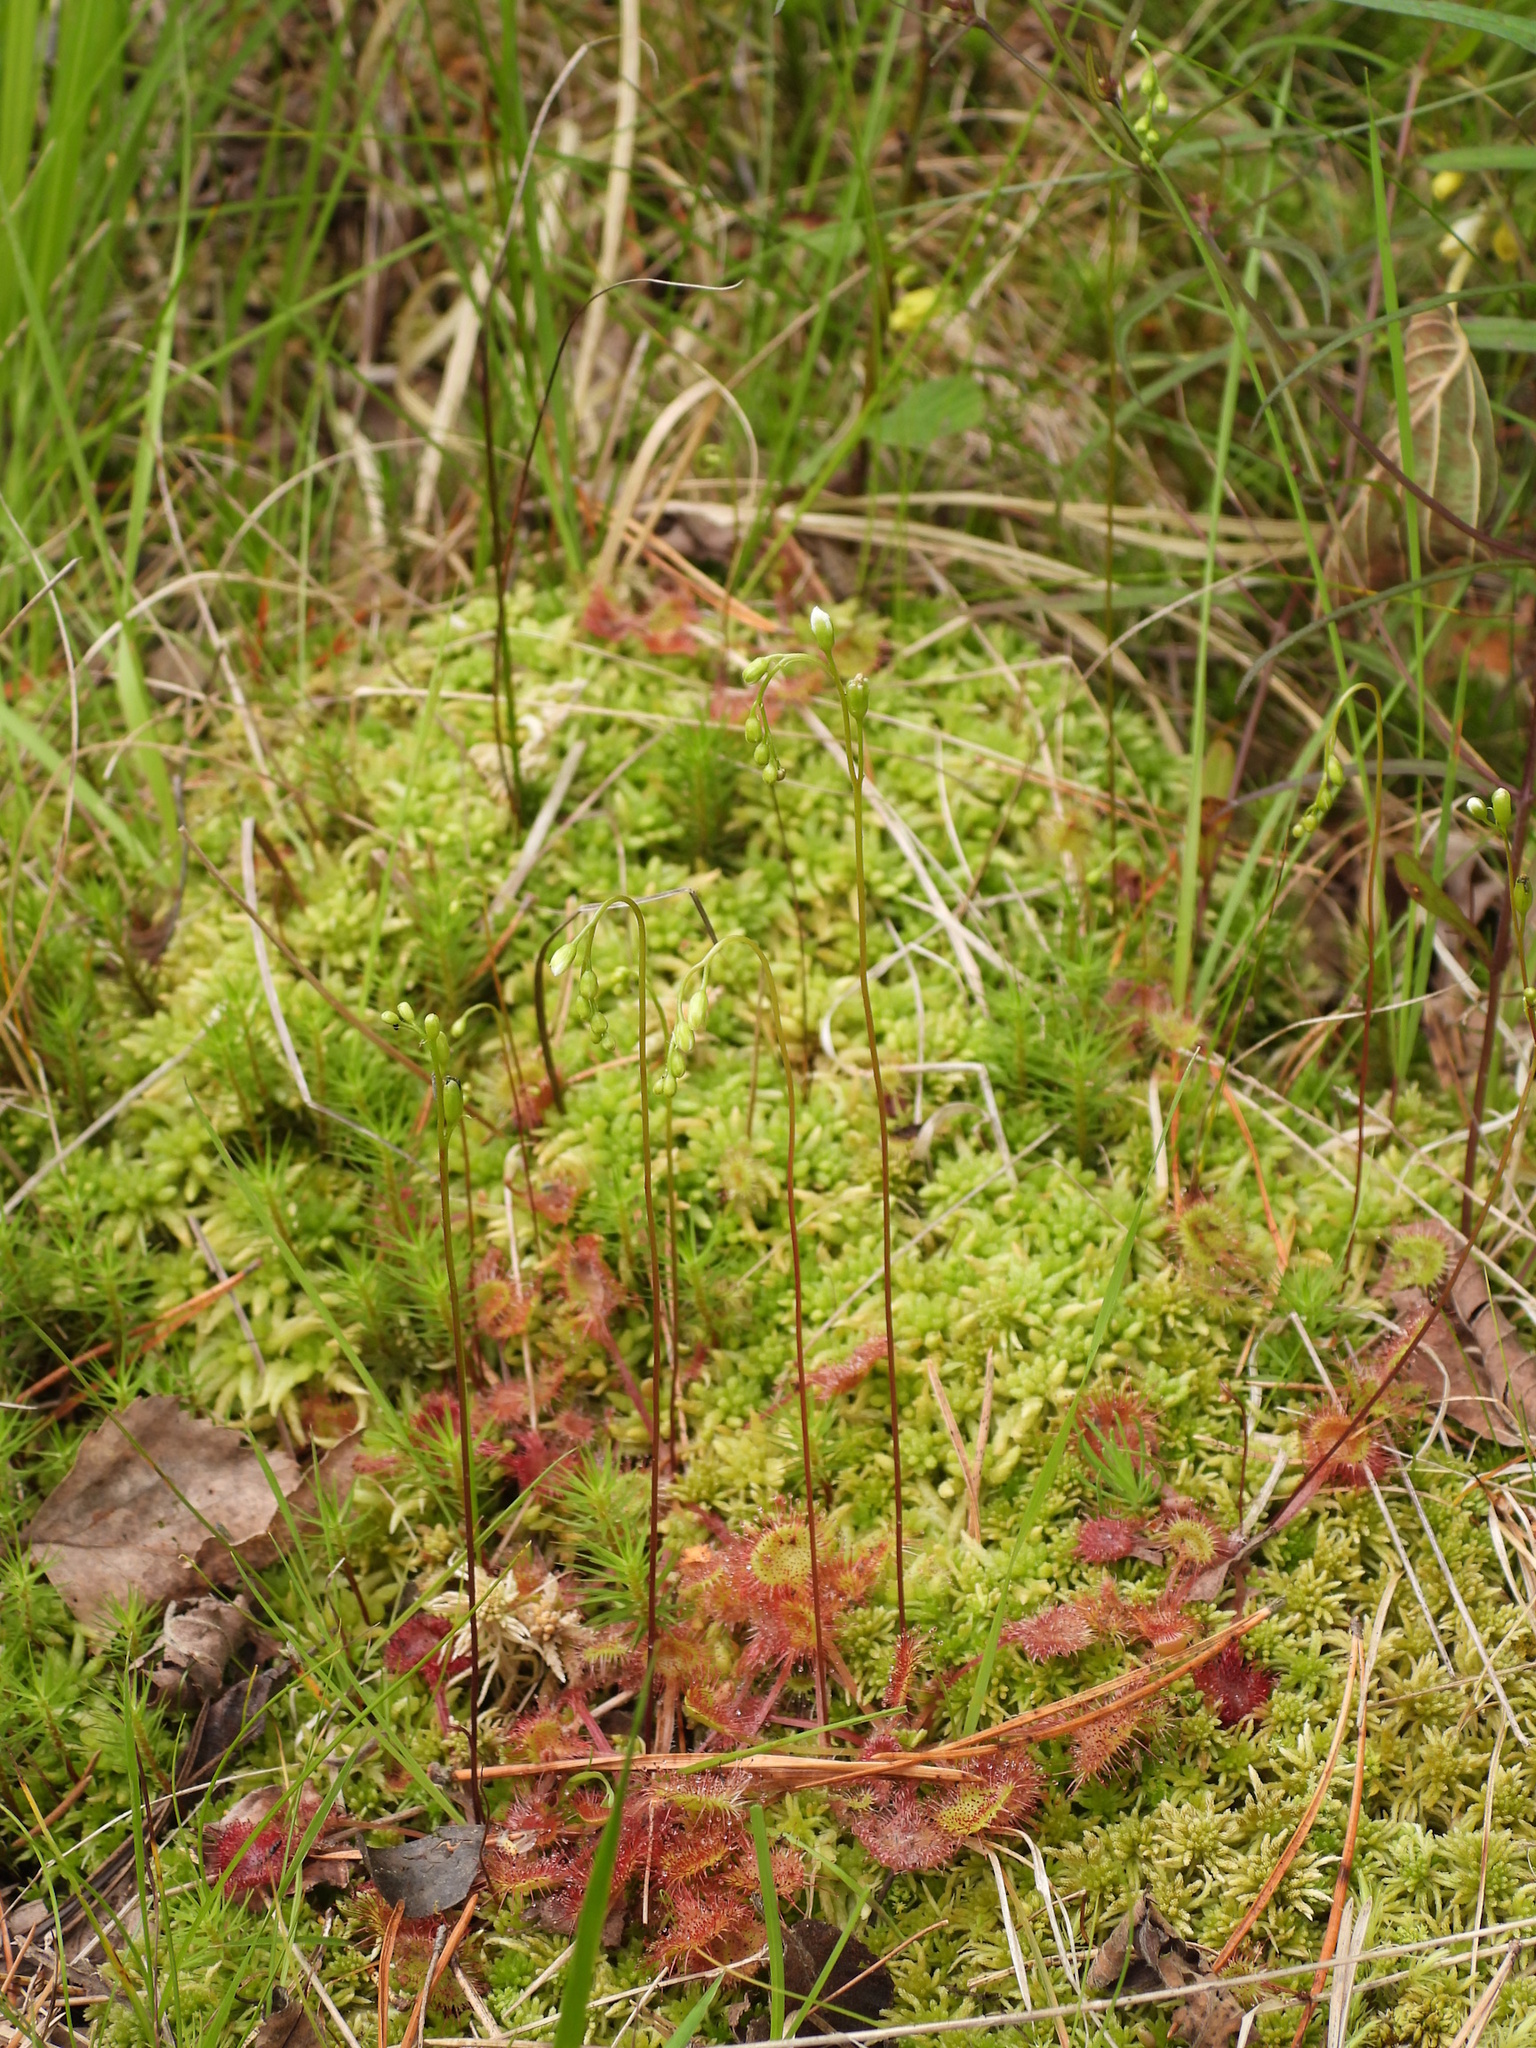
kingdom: Plantae
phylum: Tracheophyta
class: Magnoliopsida
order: Caryophyllales
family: Droseraceae
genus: Drosera
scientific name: Drosera rotundifolia
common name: Round-leaved sundew
